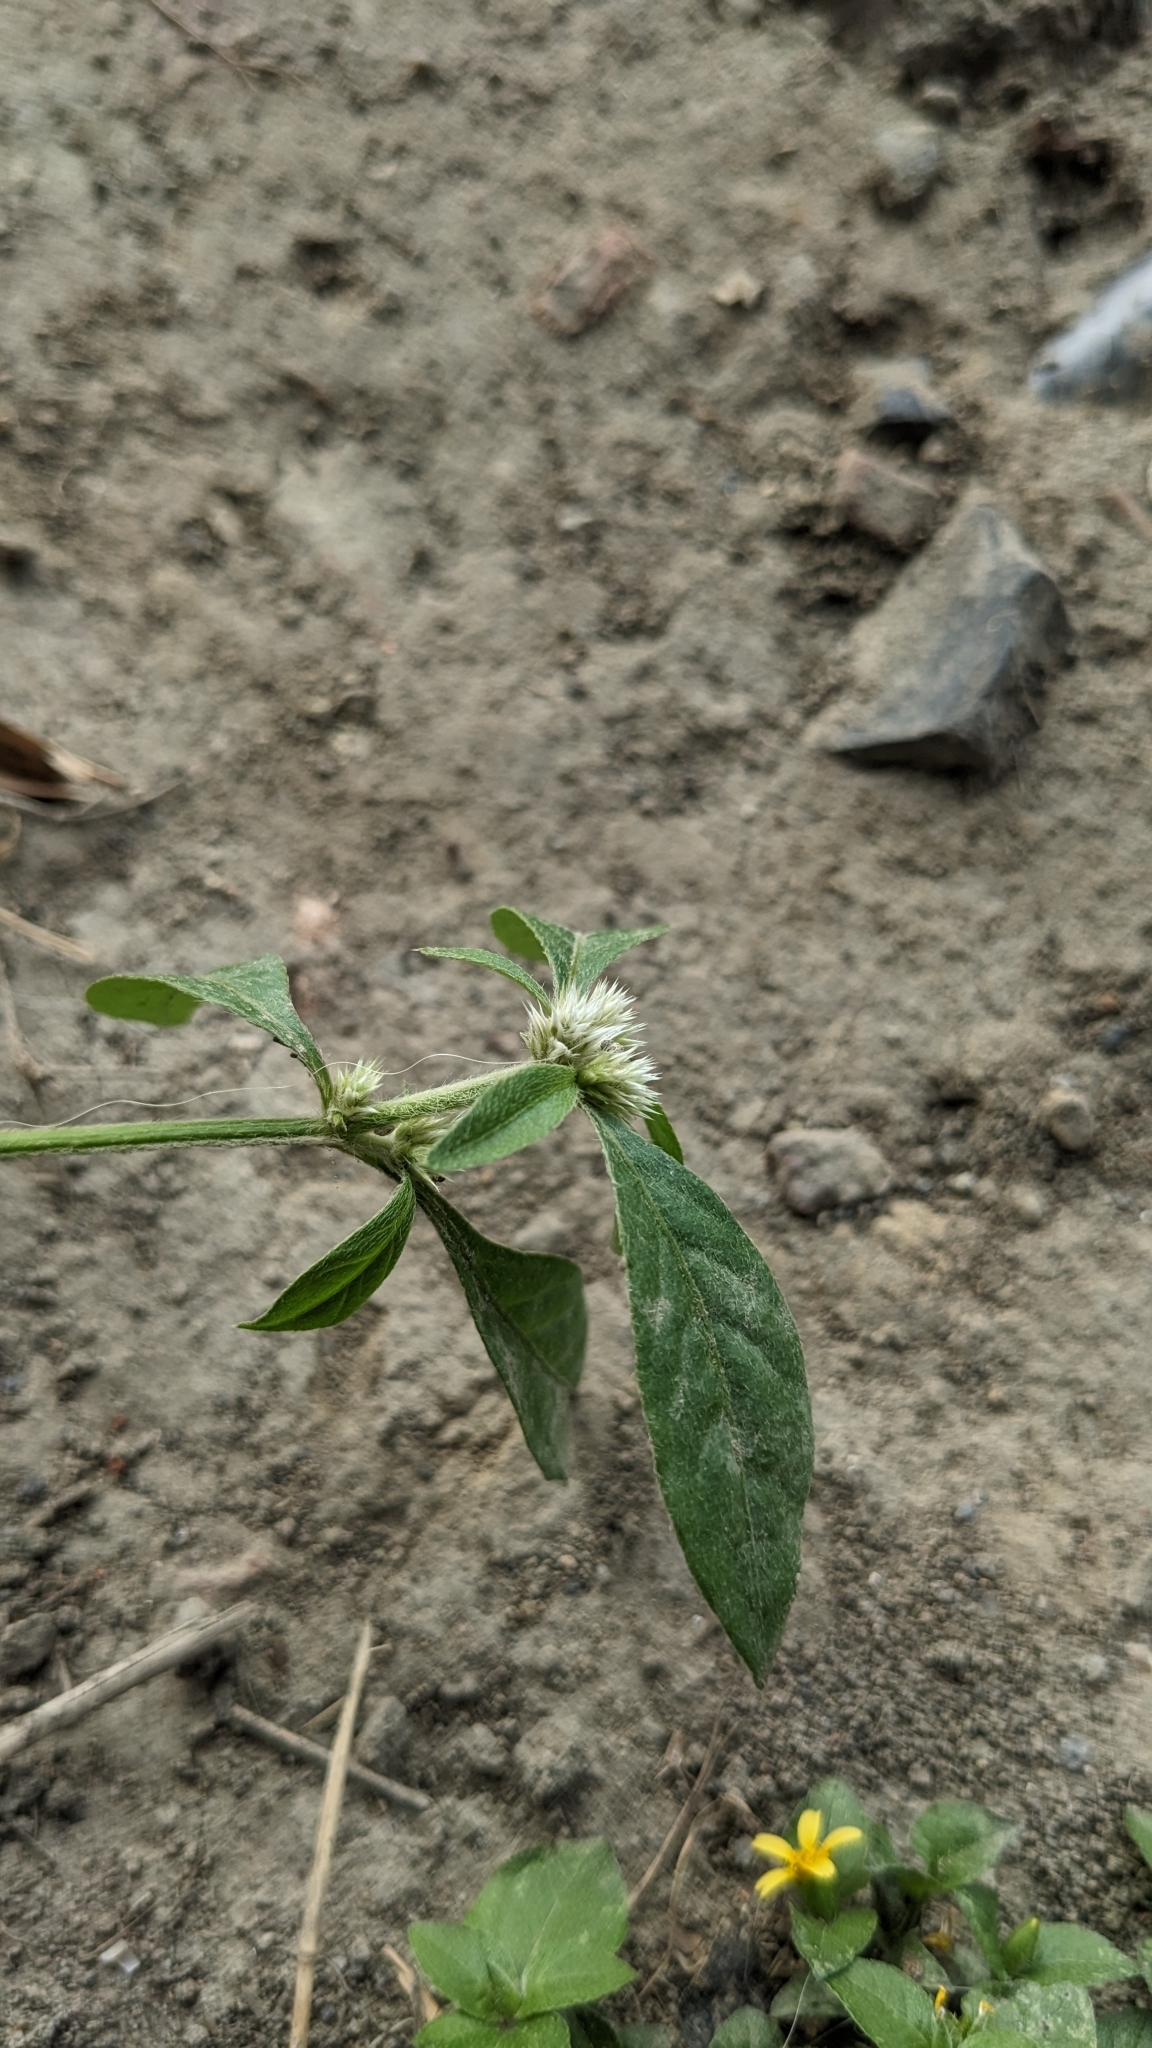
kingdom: Plantae
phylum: Tracheophyta
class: Magnoliopsida
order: Caryophyllales
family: Amaranthaceae
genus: Alternanthera
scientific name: Alternanthera ficoidea
